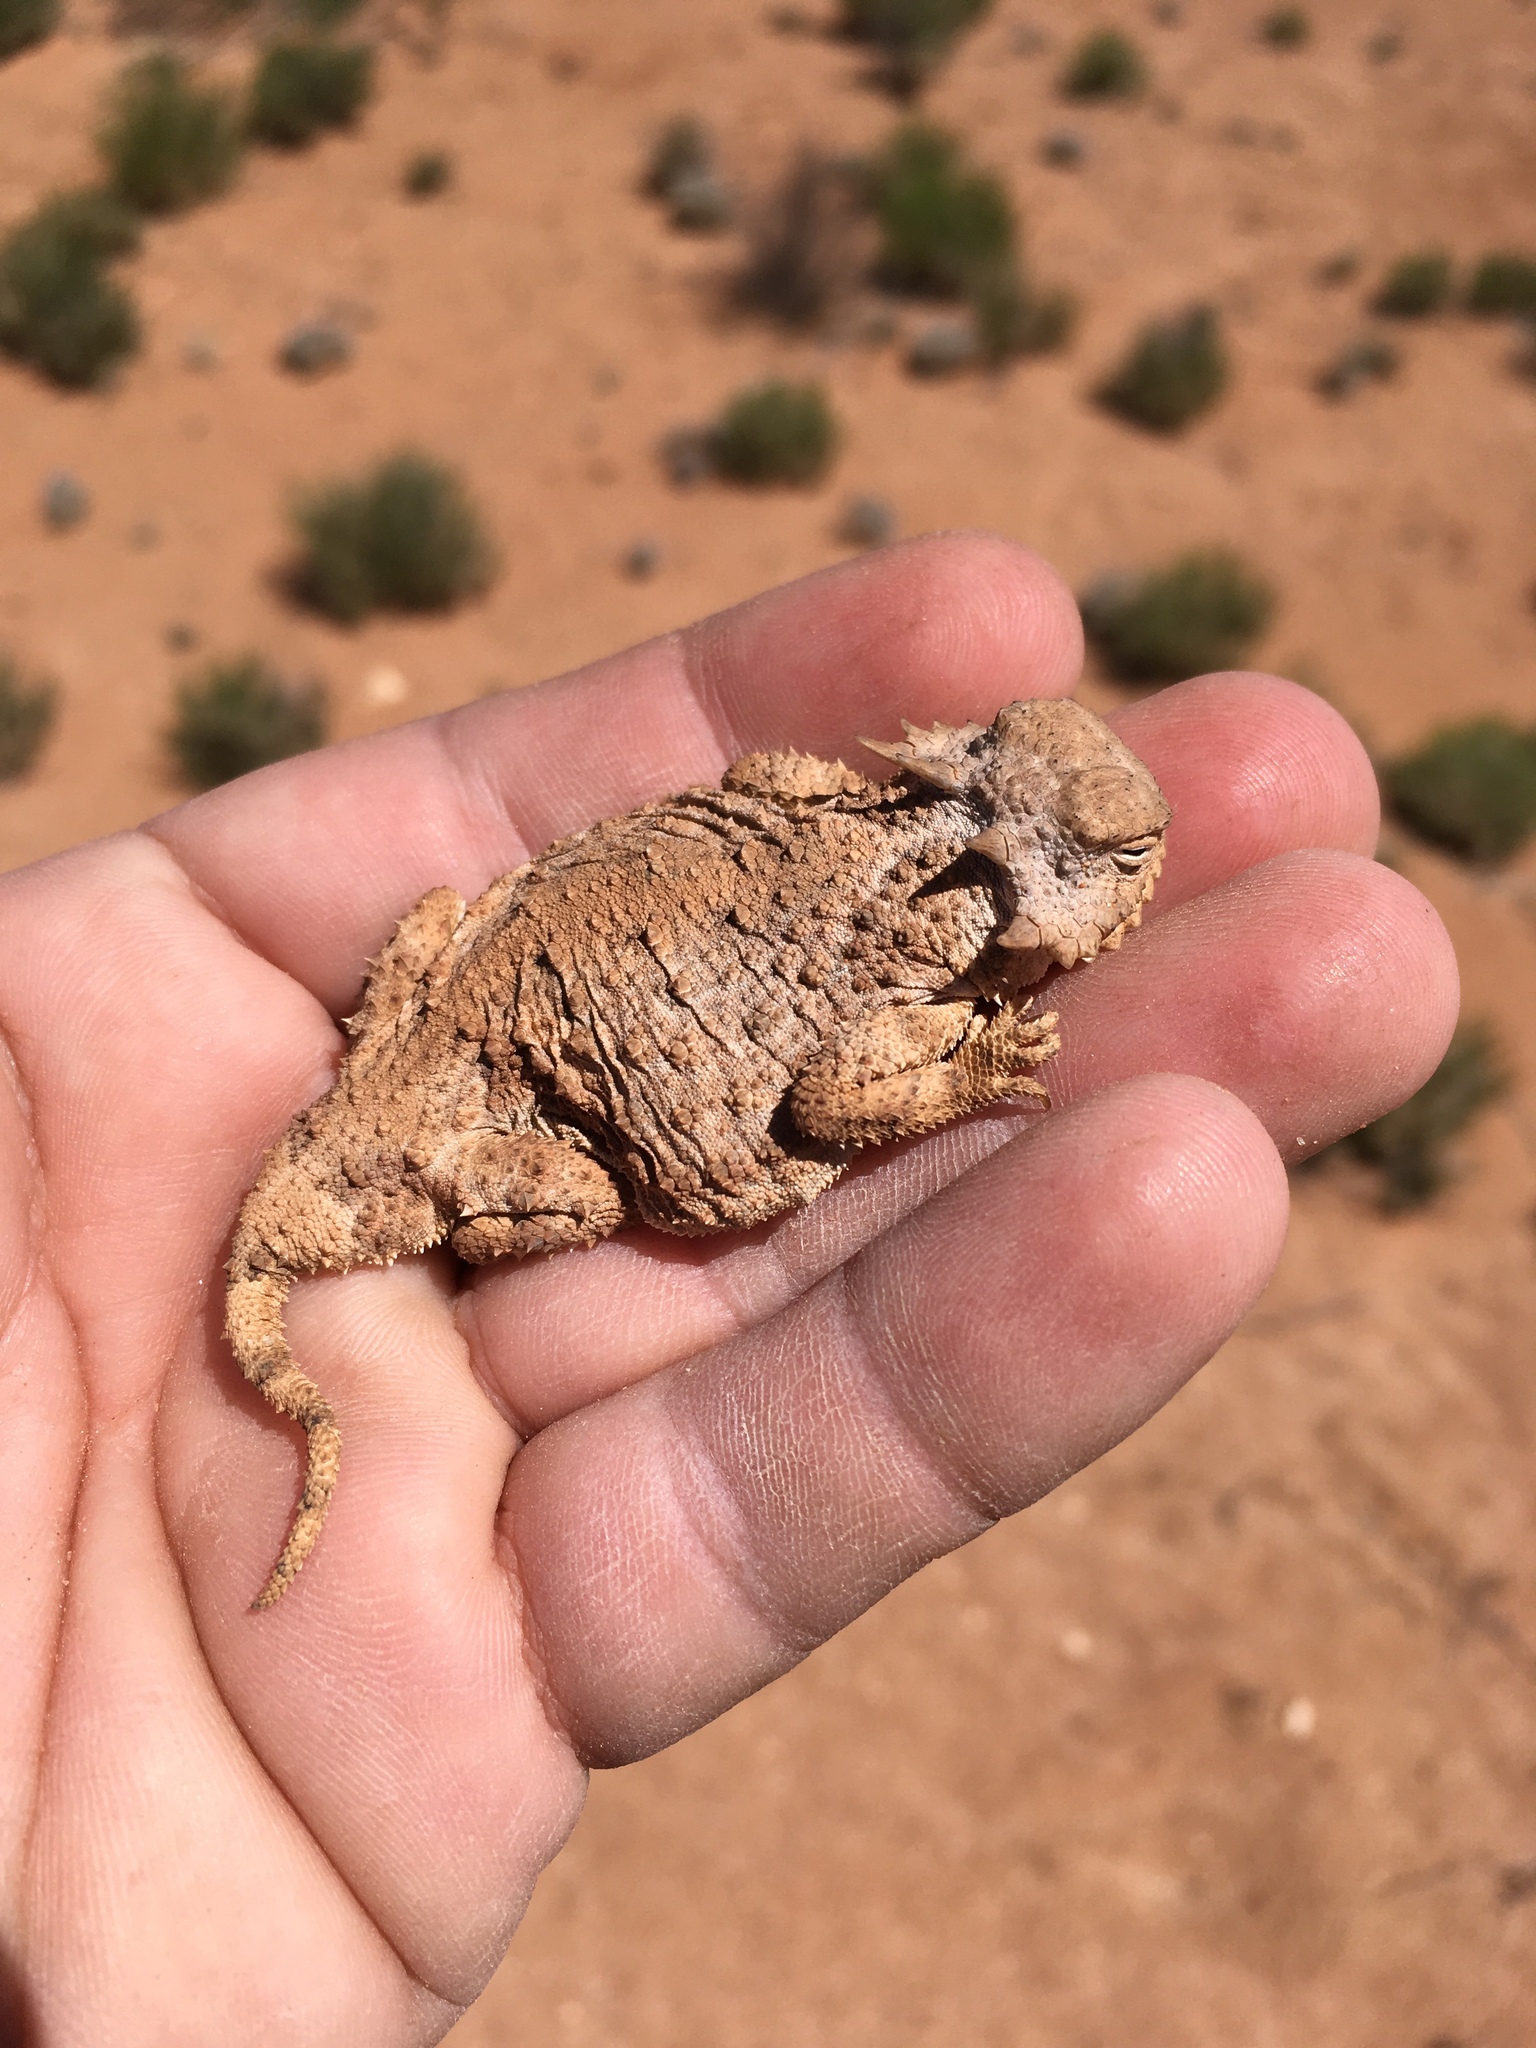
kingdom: Animalia
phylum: Chordata
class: Squamata
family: Phrynosomatidae
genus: Phrynosoma
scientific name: Phrynosoma modestum
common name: Roundtail horned lizard
